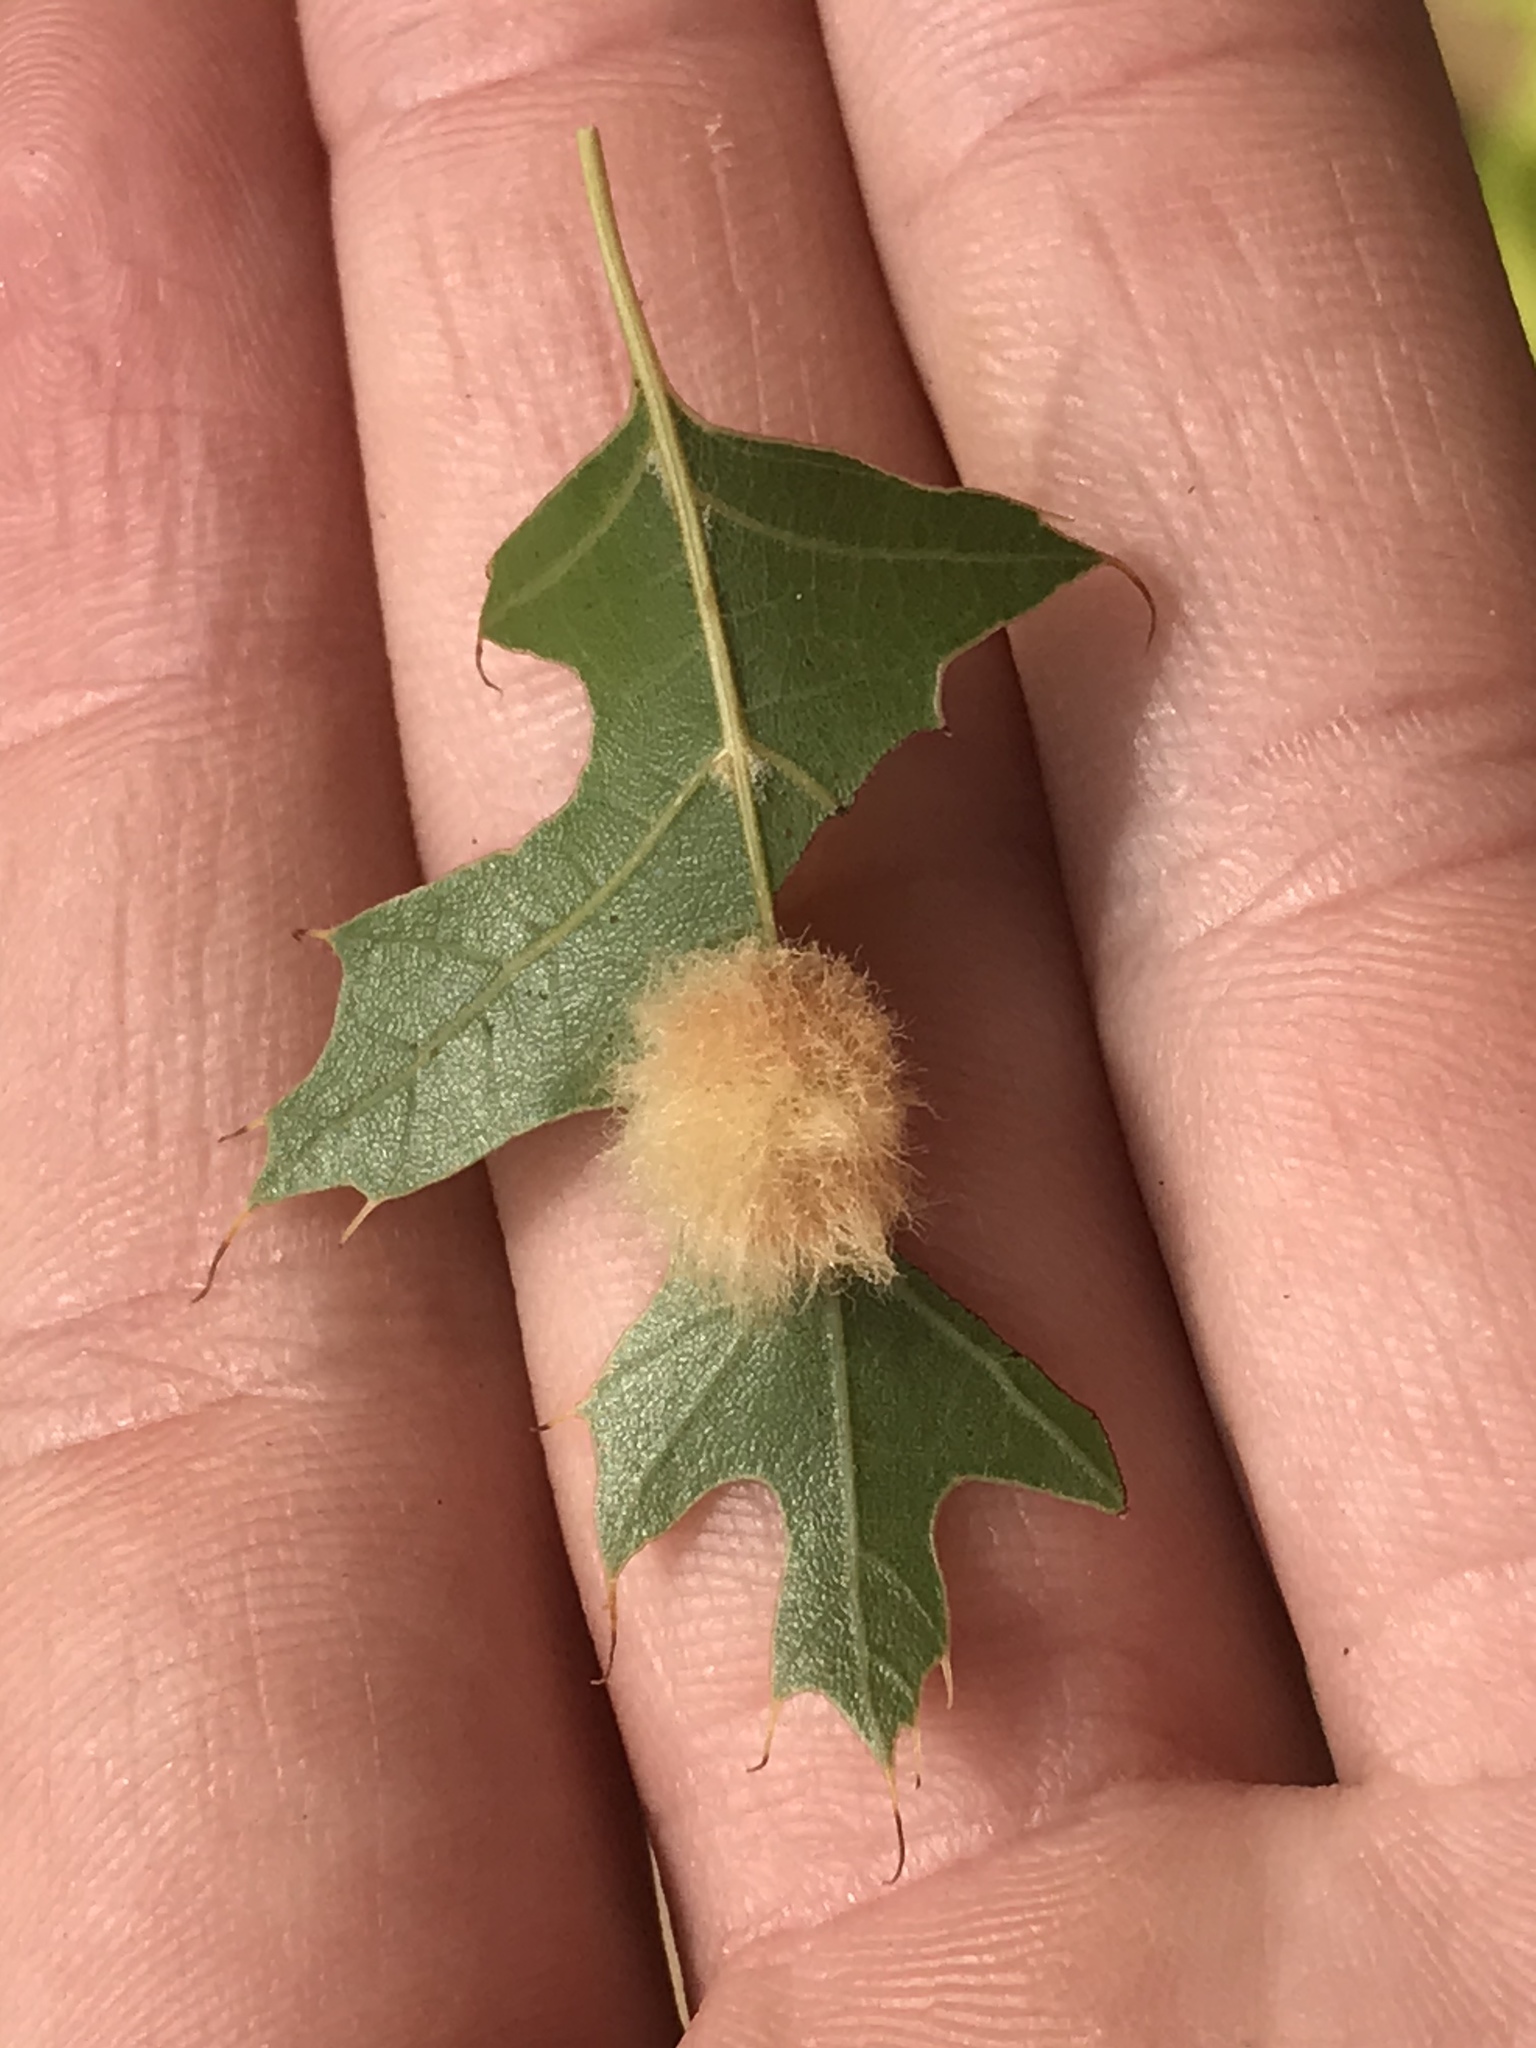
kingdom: Animalia
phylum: Arthropoda
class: Insecta
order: Hymenoptera
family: Cynipidae
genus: Callirhytis
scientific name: Callirhytis
